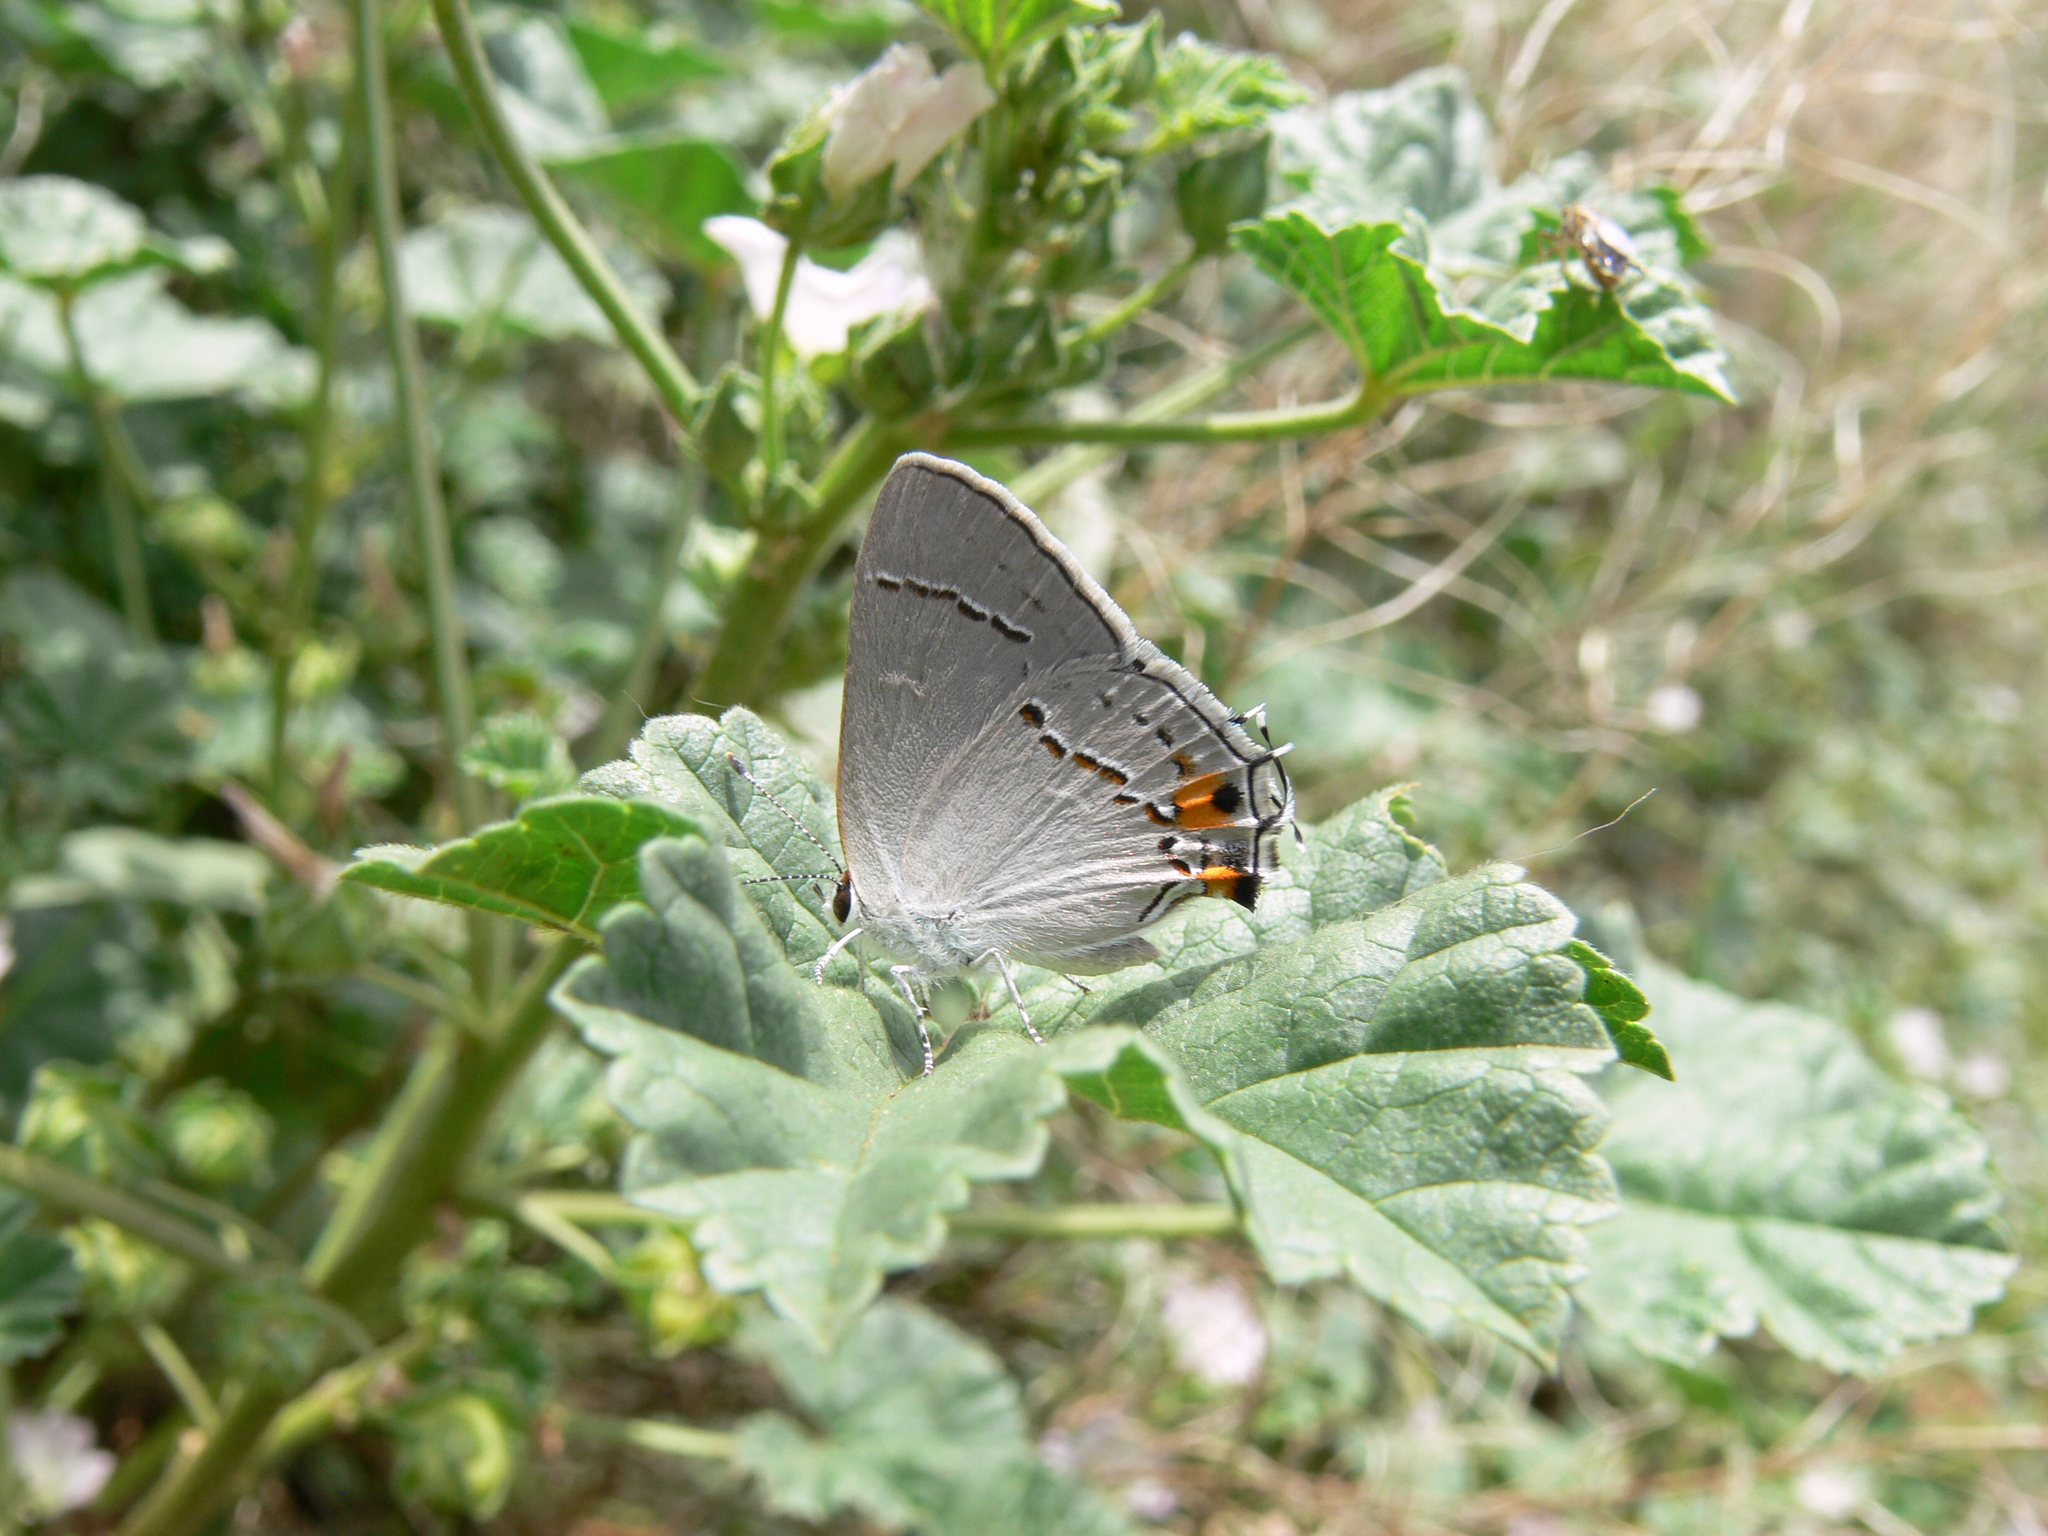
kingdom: Animalia
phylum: Arthropoda
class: Insecta
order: Lepidoptera
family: Lycaenidae
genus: Strymon
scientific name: Strymon melinus
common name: Gray hairstreak
